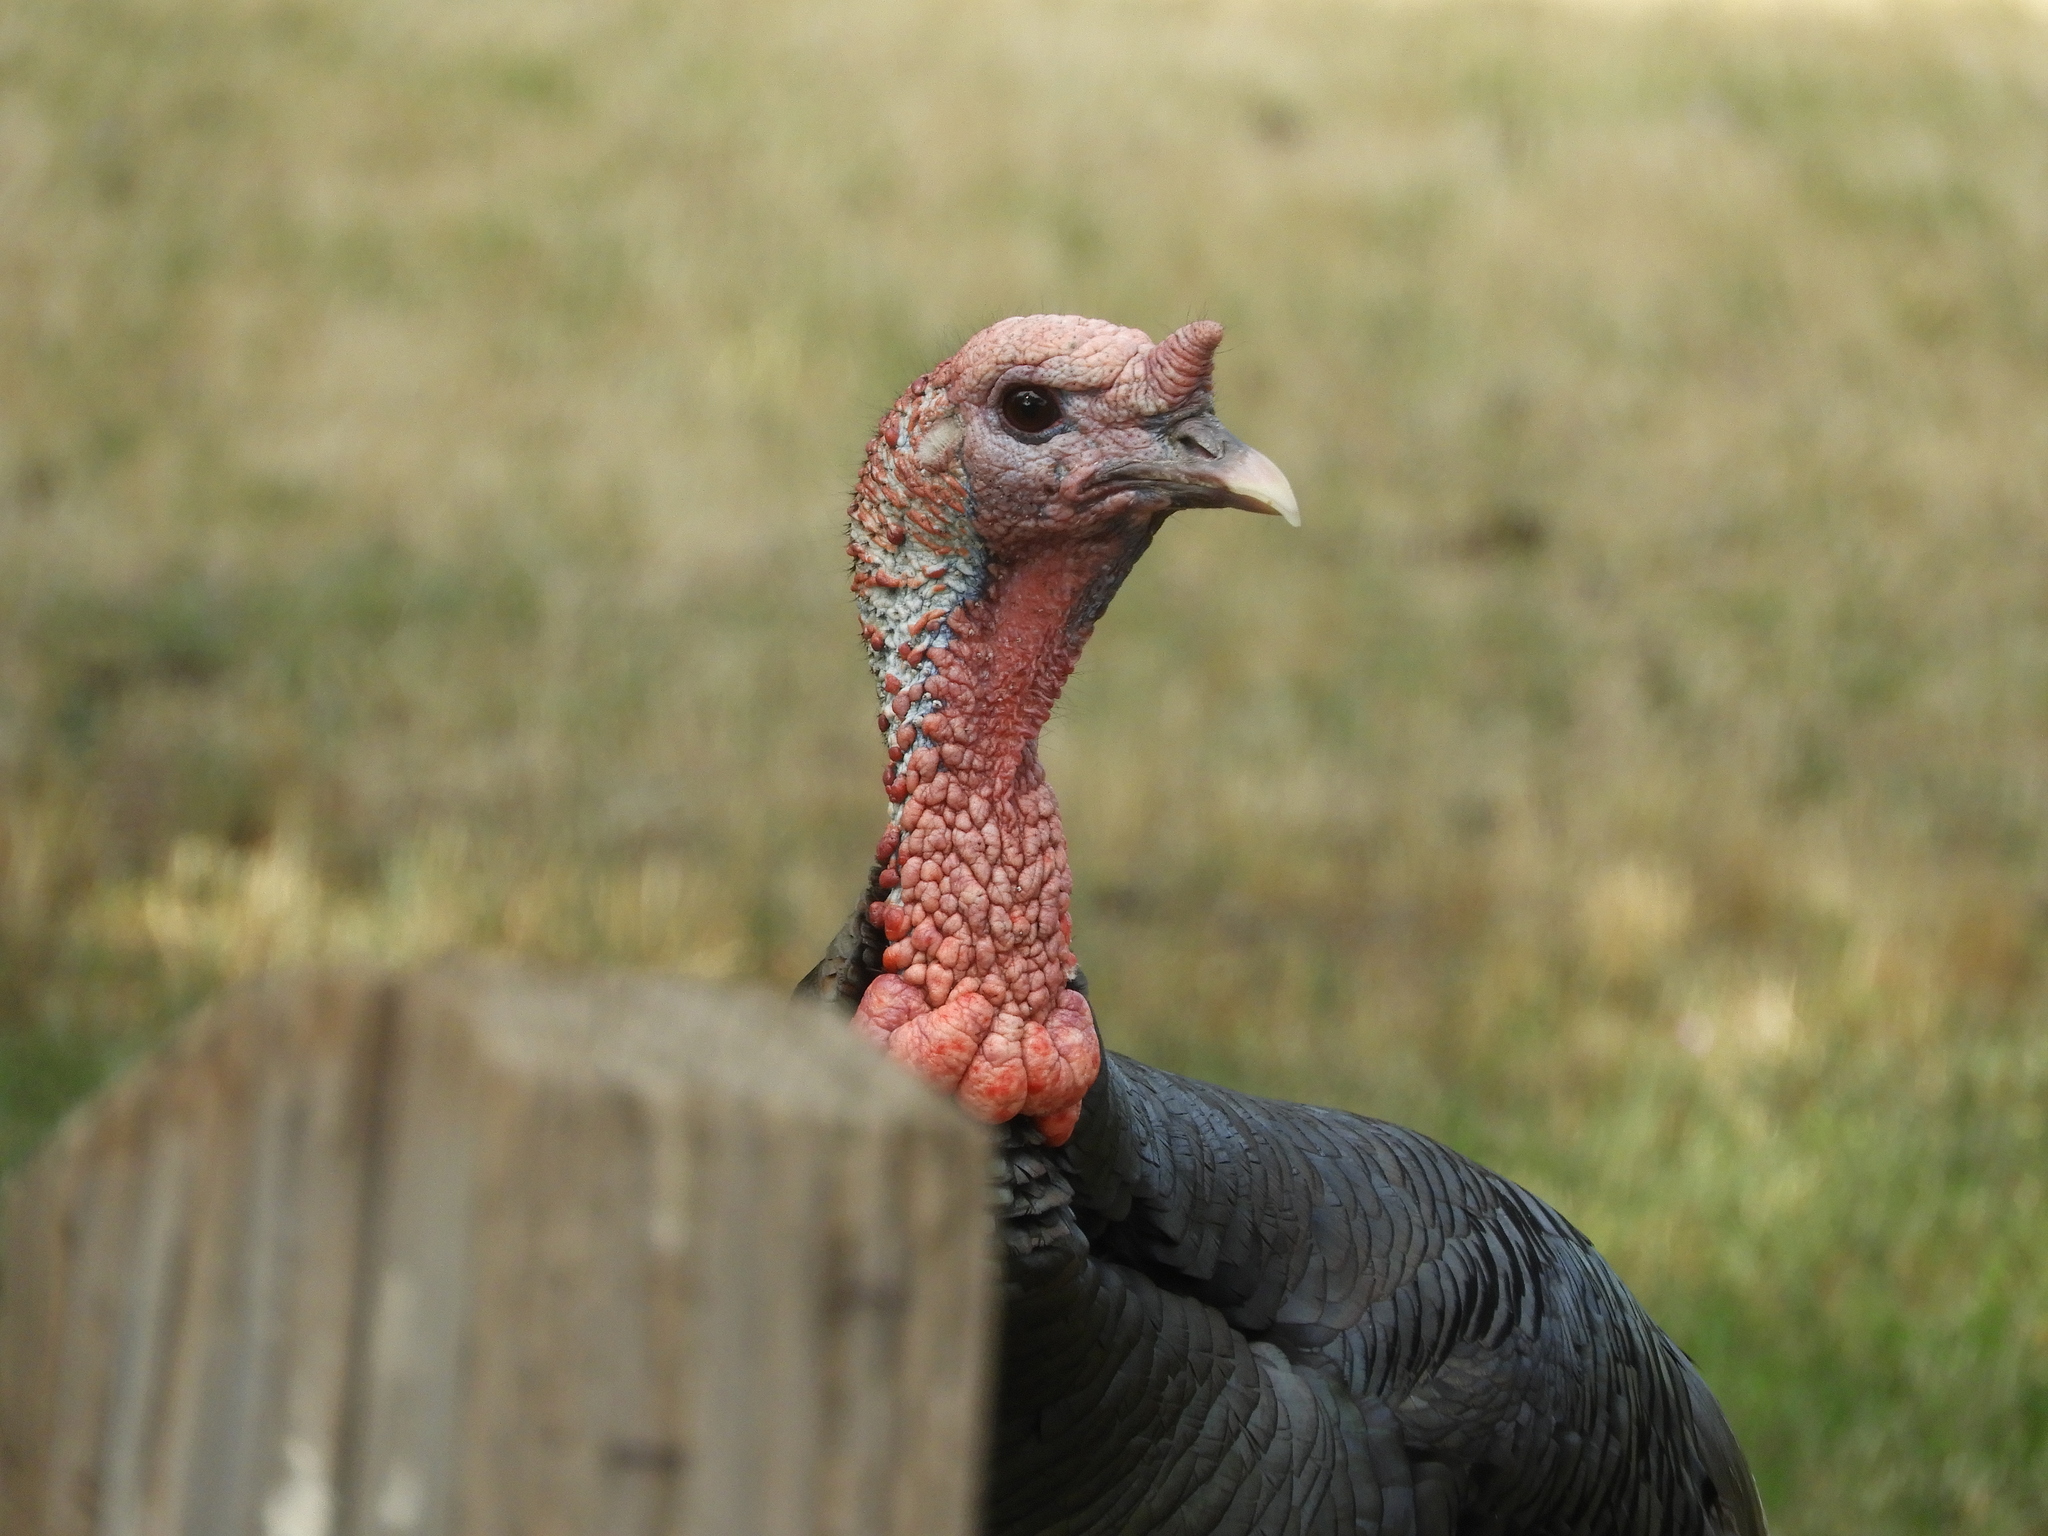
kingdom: Animalia
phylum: Chordata
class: Aves
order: Galliformes
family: Phasianidae
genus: Meleagris
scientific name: Meleagris gallopavo
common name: Wild turkey
